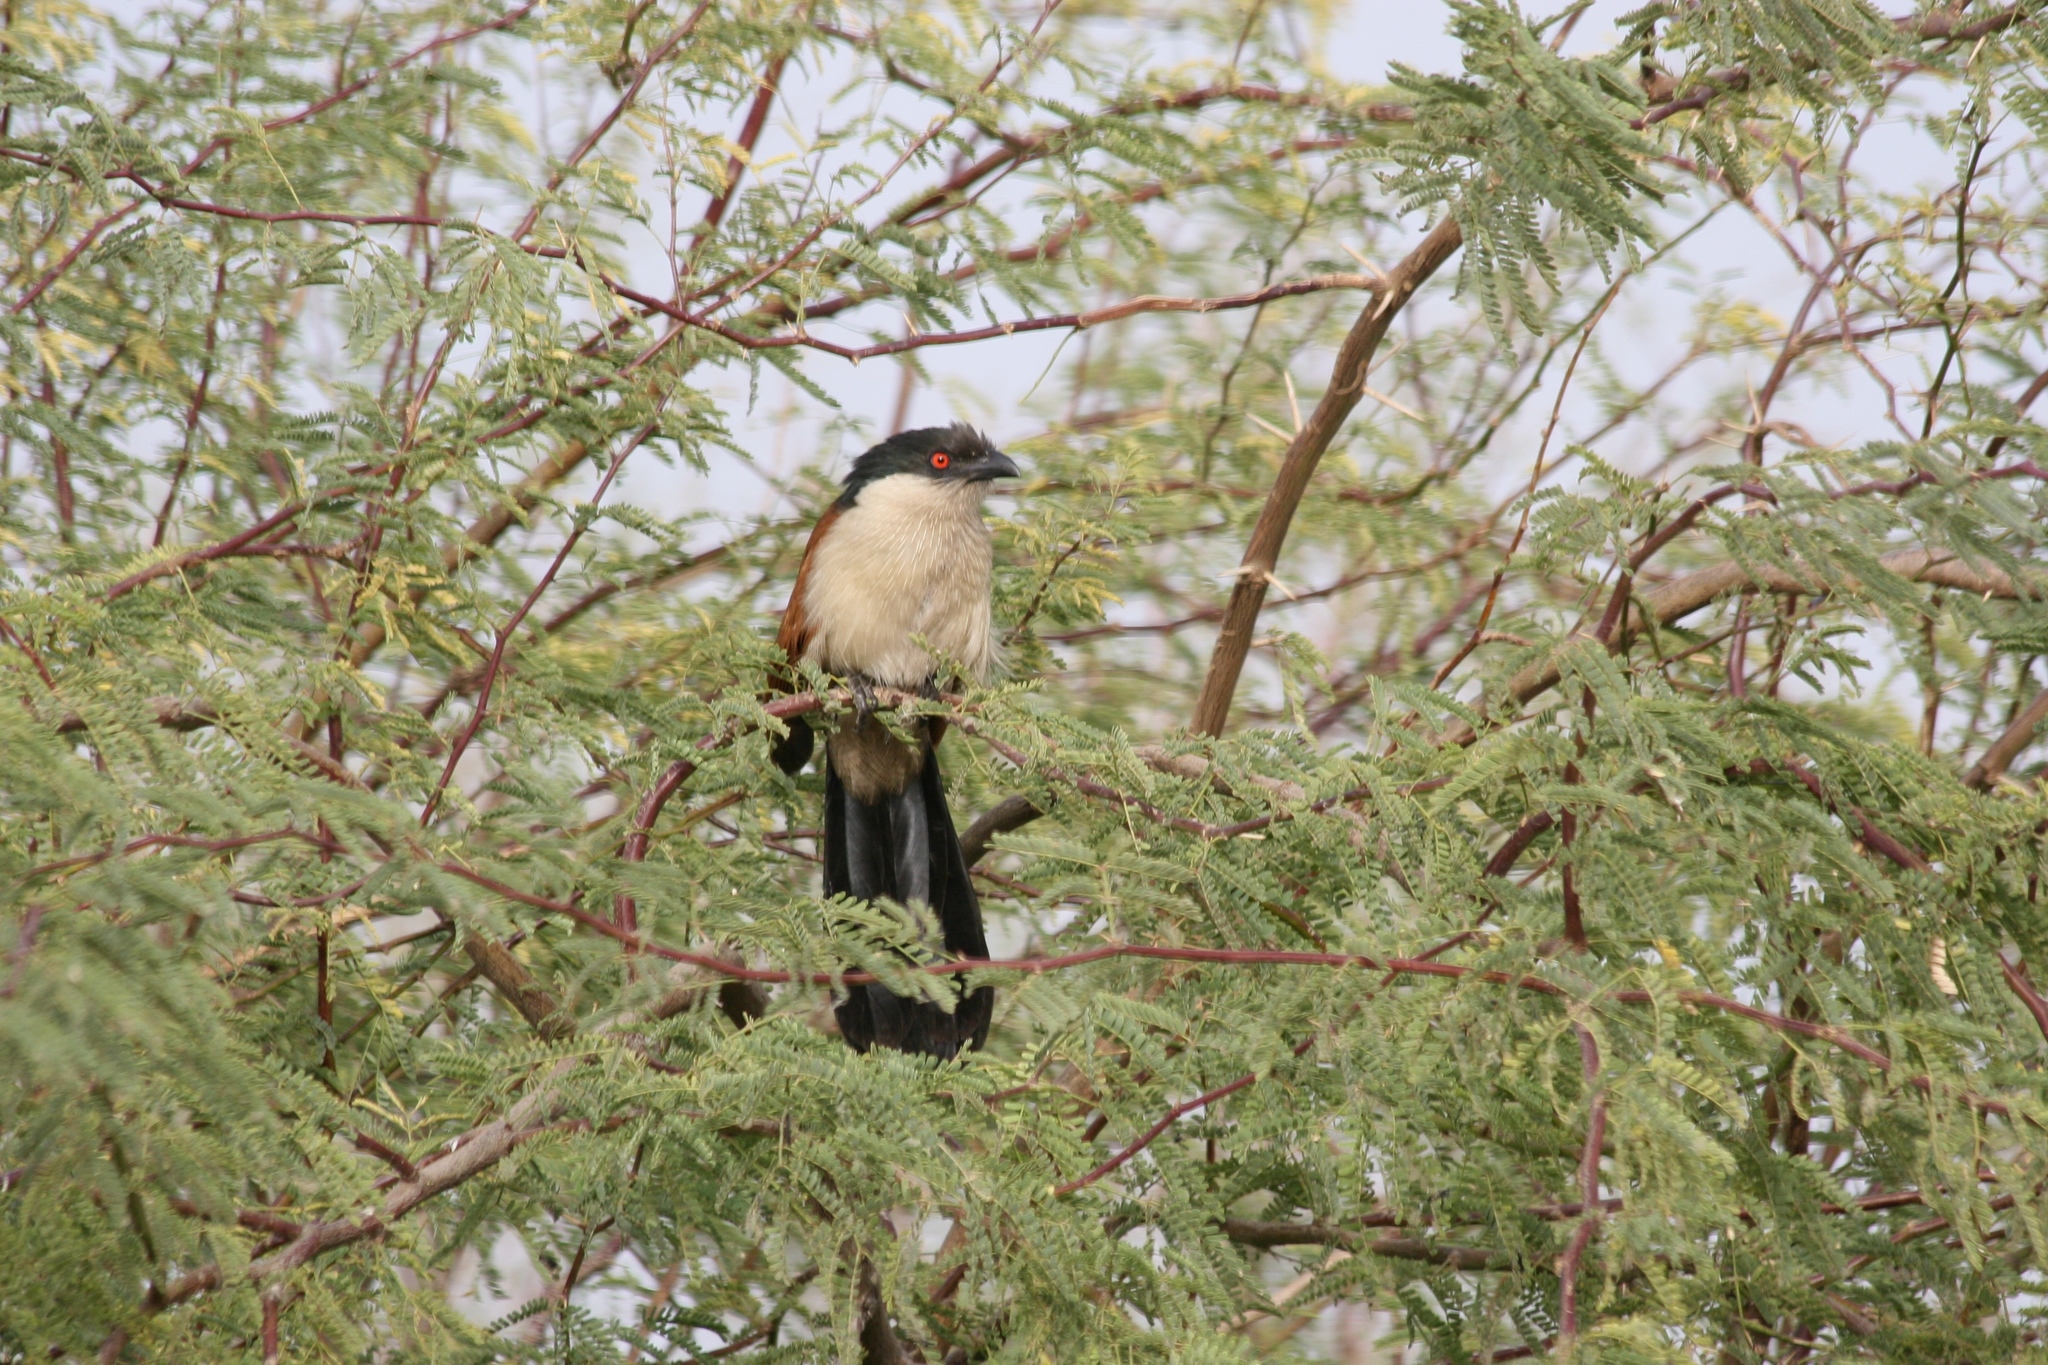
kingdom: Animalia
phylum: Chordata
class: Aves
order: Cuculiformes
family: Cuculidae
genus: Centropus
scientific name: Centropus senegalensis
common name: Senegal coucal
